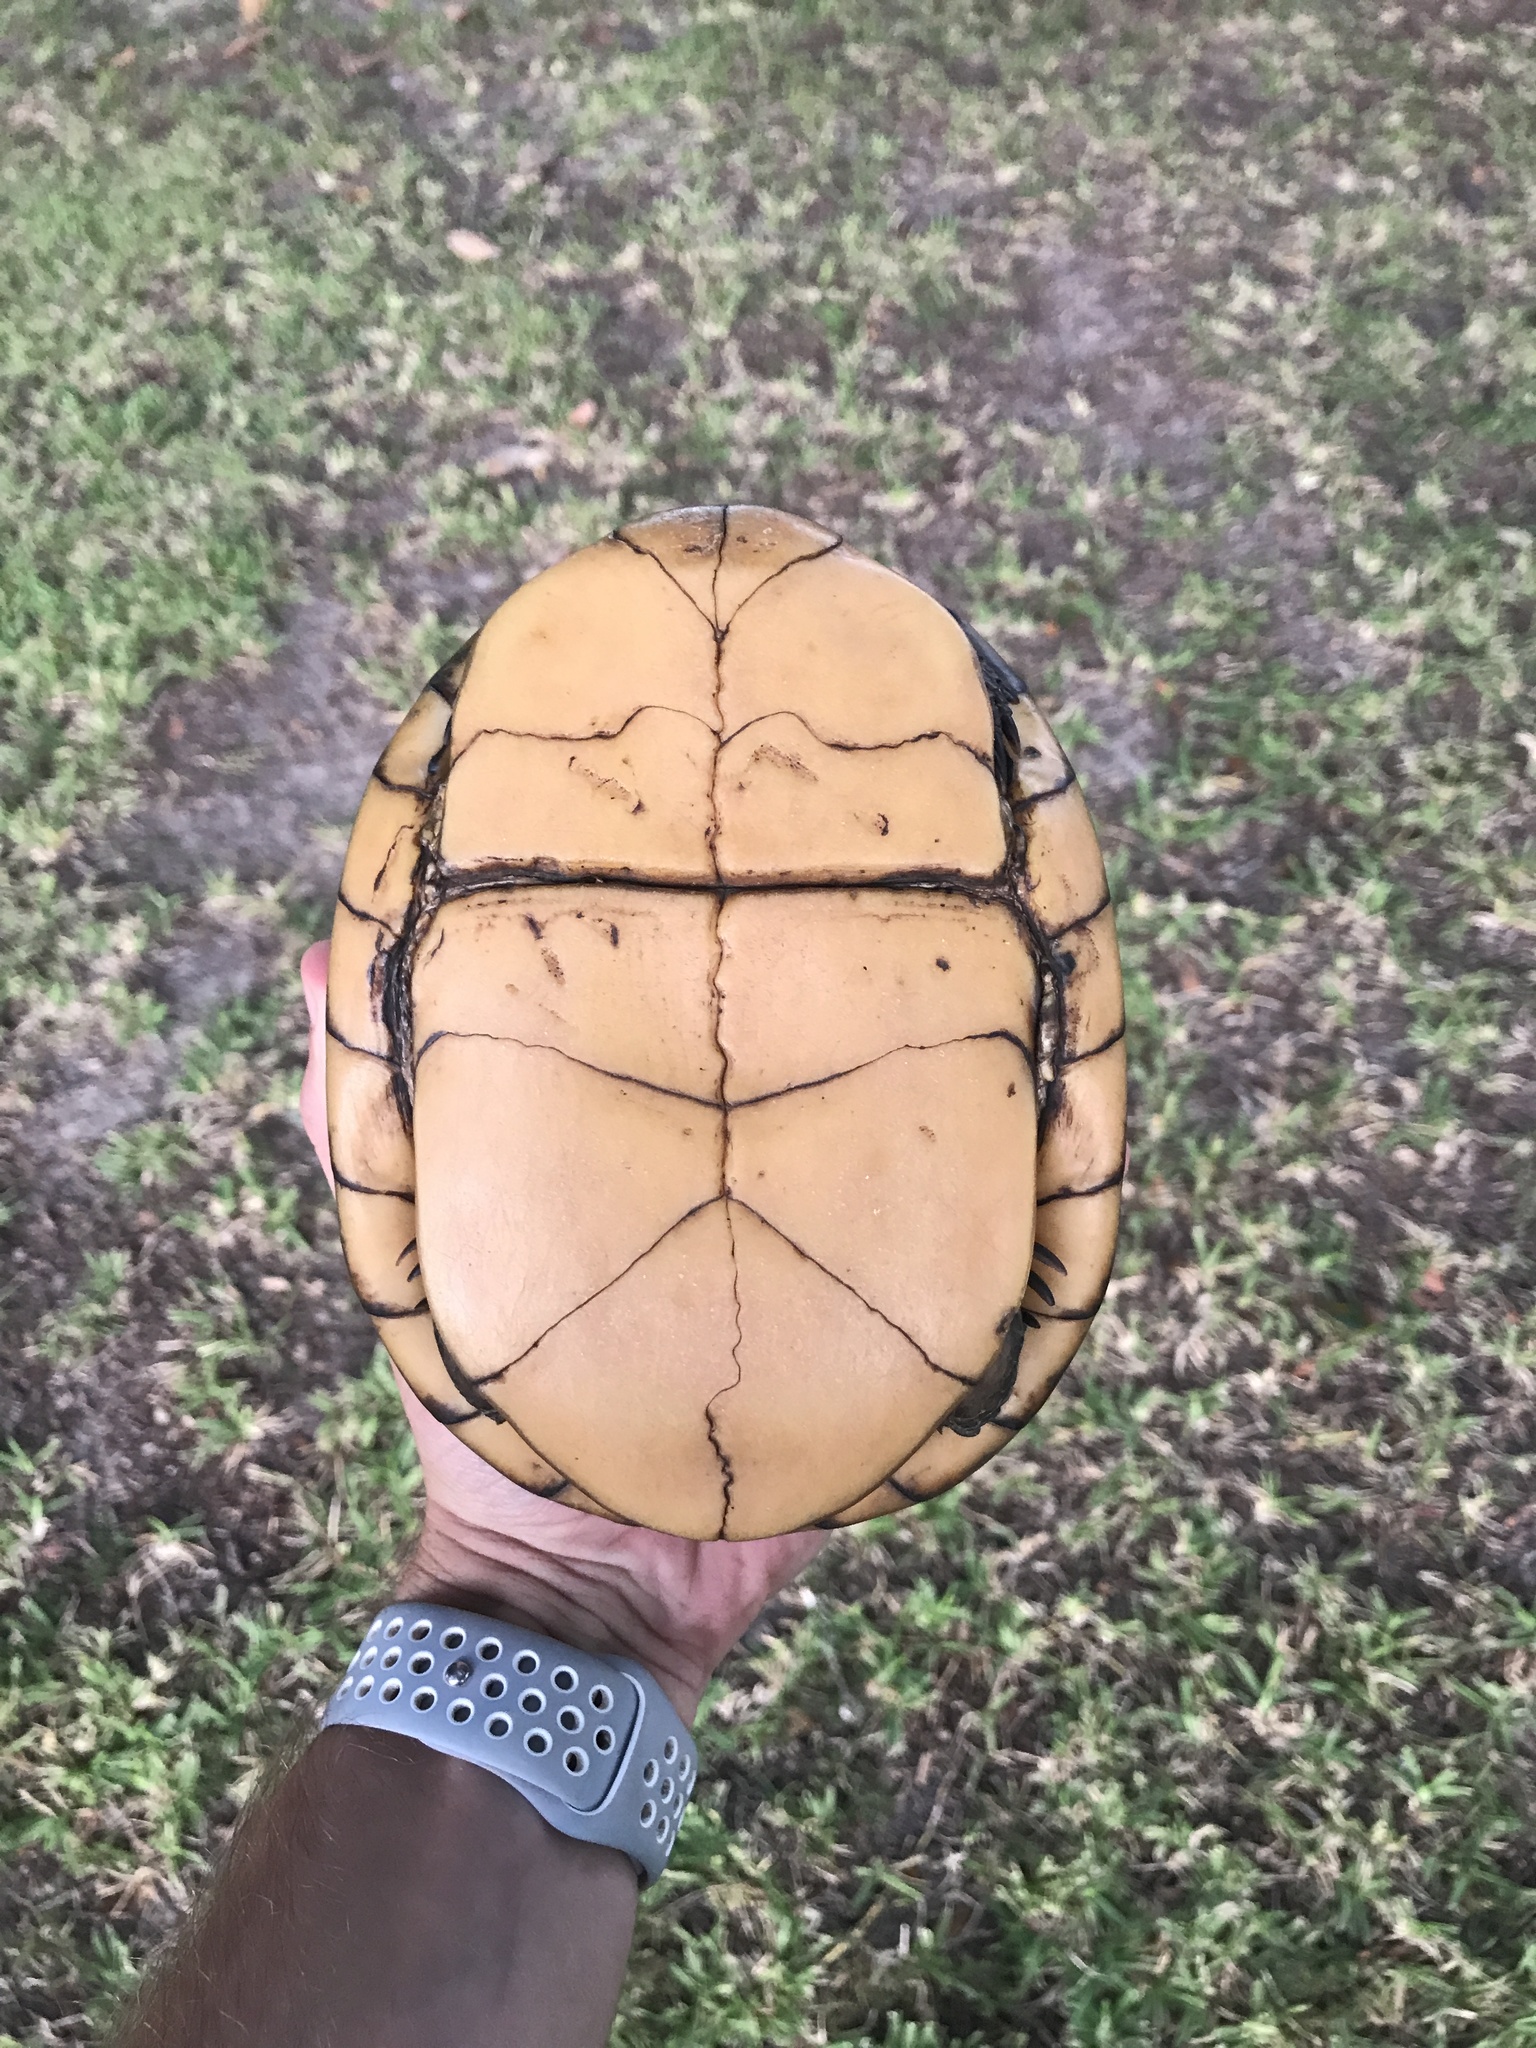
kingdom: Animalia
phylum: Chordata
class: Testudines
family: Emydidae
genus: Terrapene
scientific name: Terrapene carolina
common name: Common box turtle
